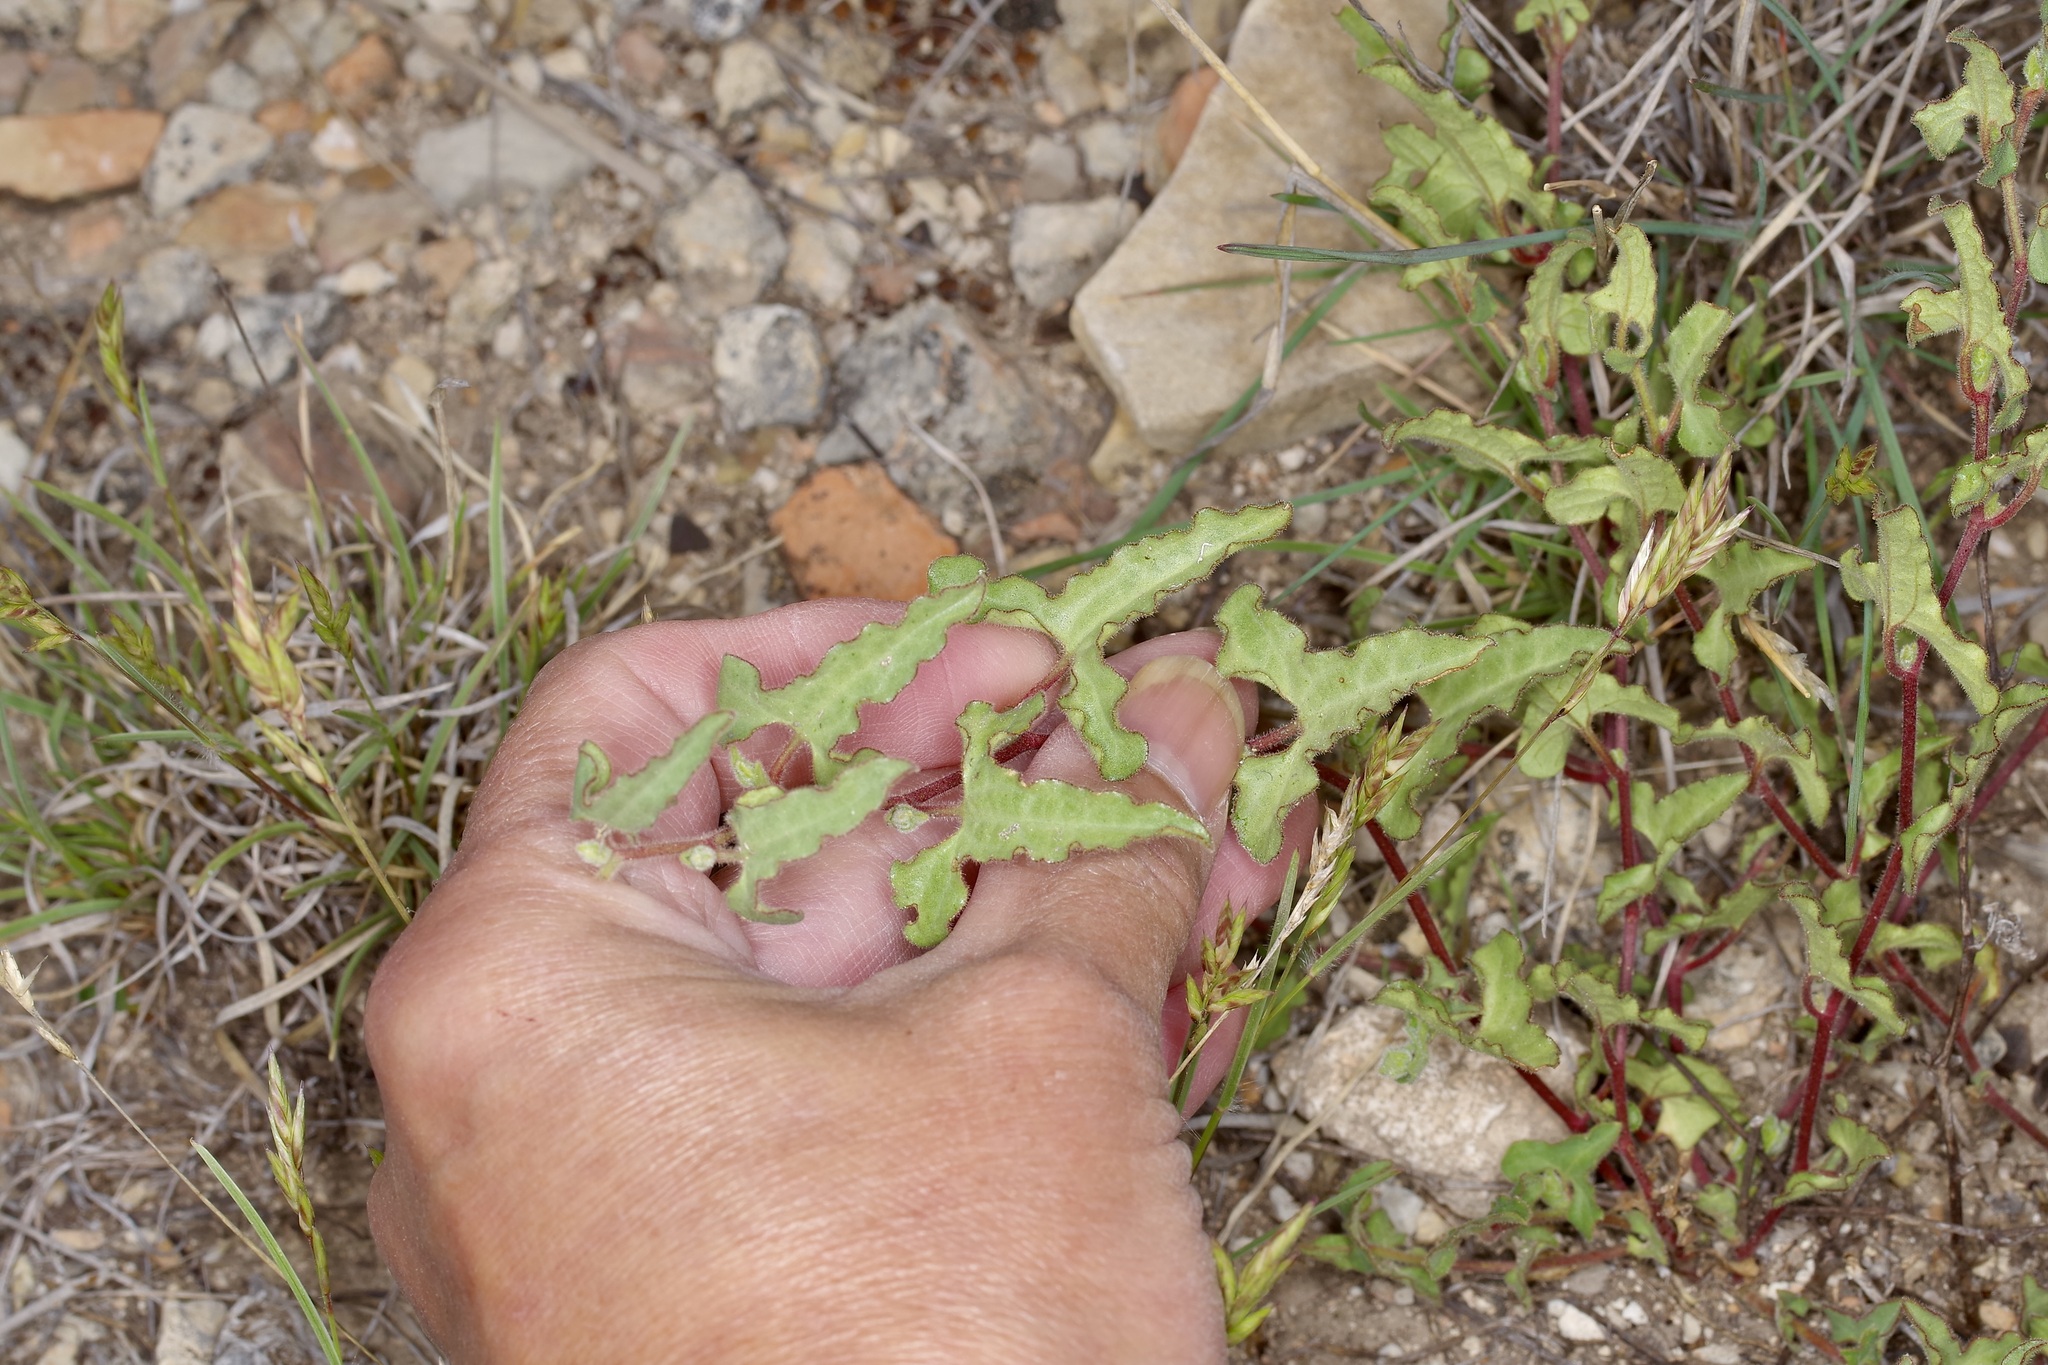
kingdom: Plantae
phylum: Tracheophyta
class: Magnoliopsida
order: Piperales
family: Aristolochiaceae
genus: Aristolochia
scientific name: Aristolochia coryi
